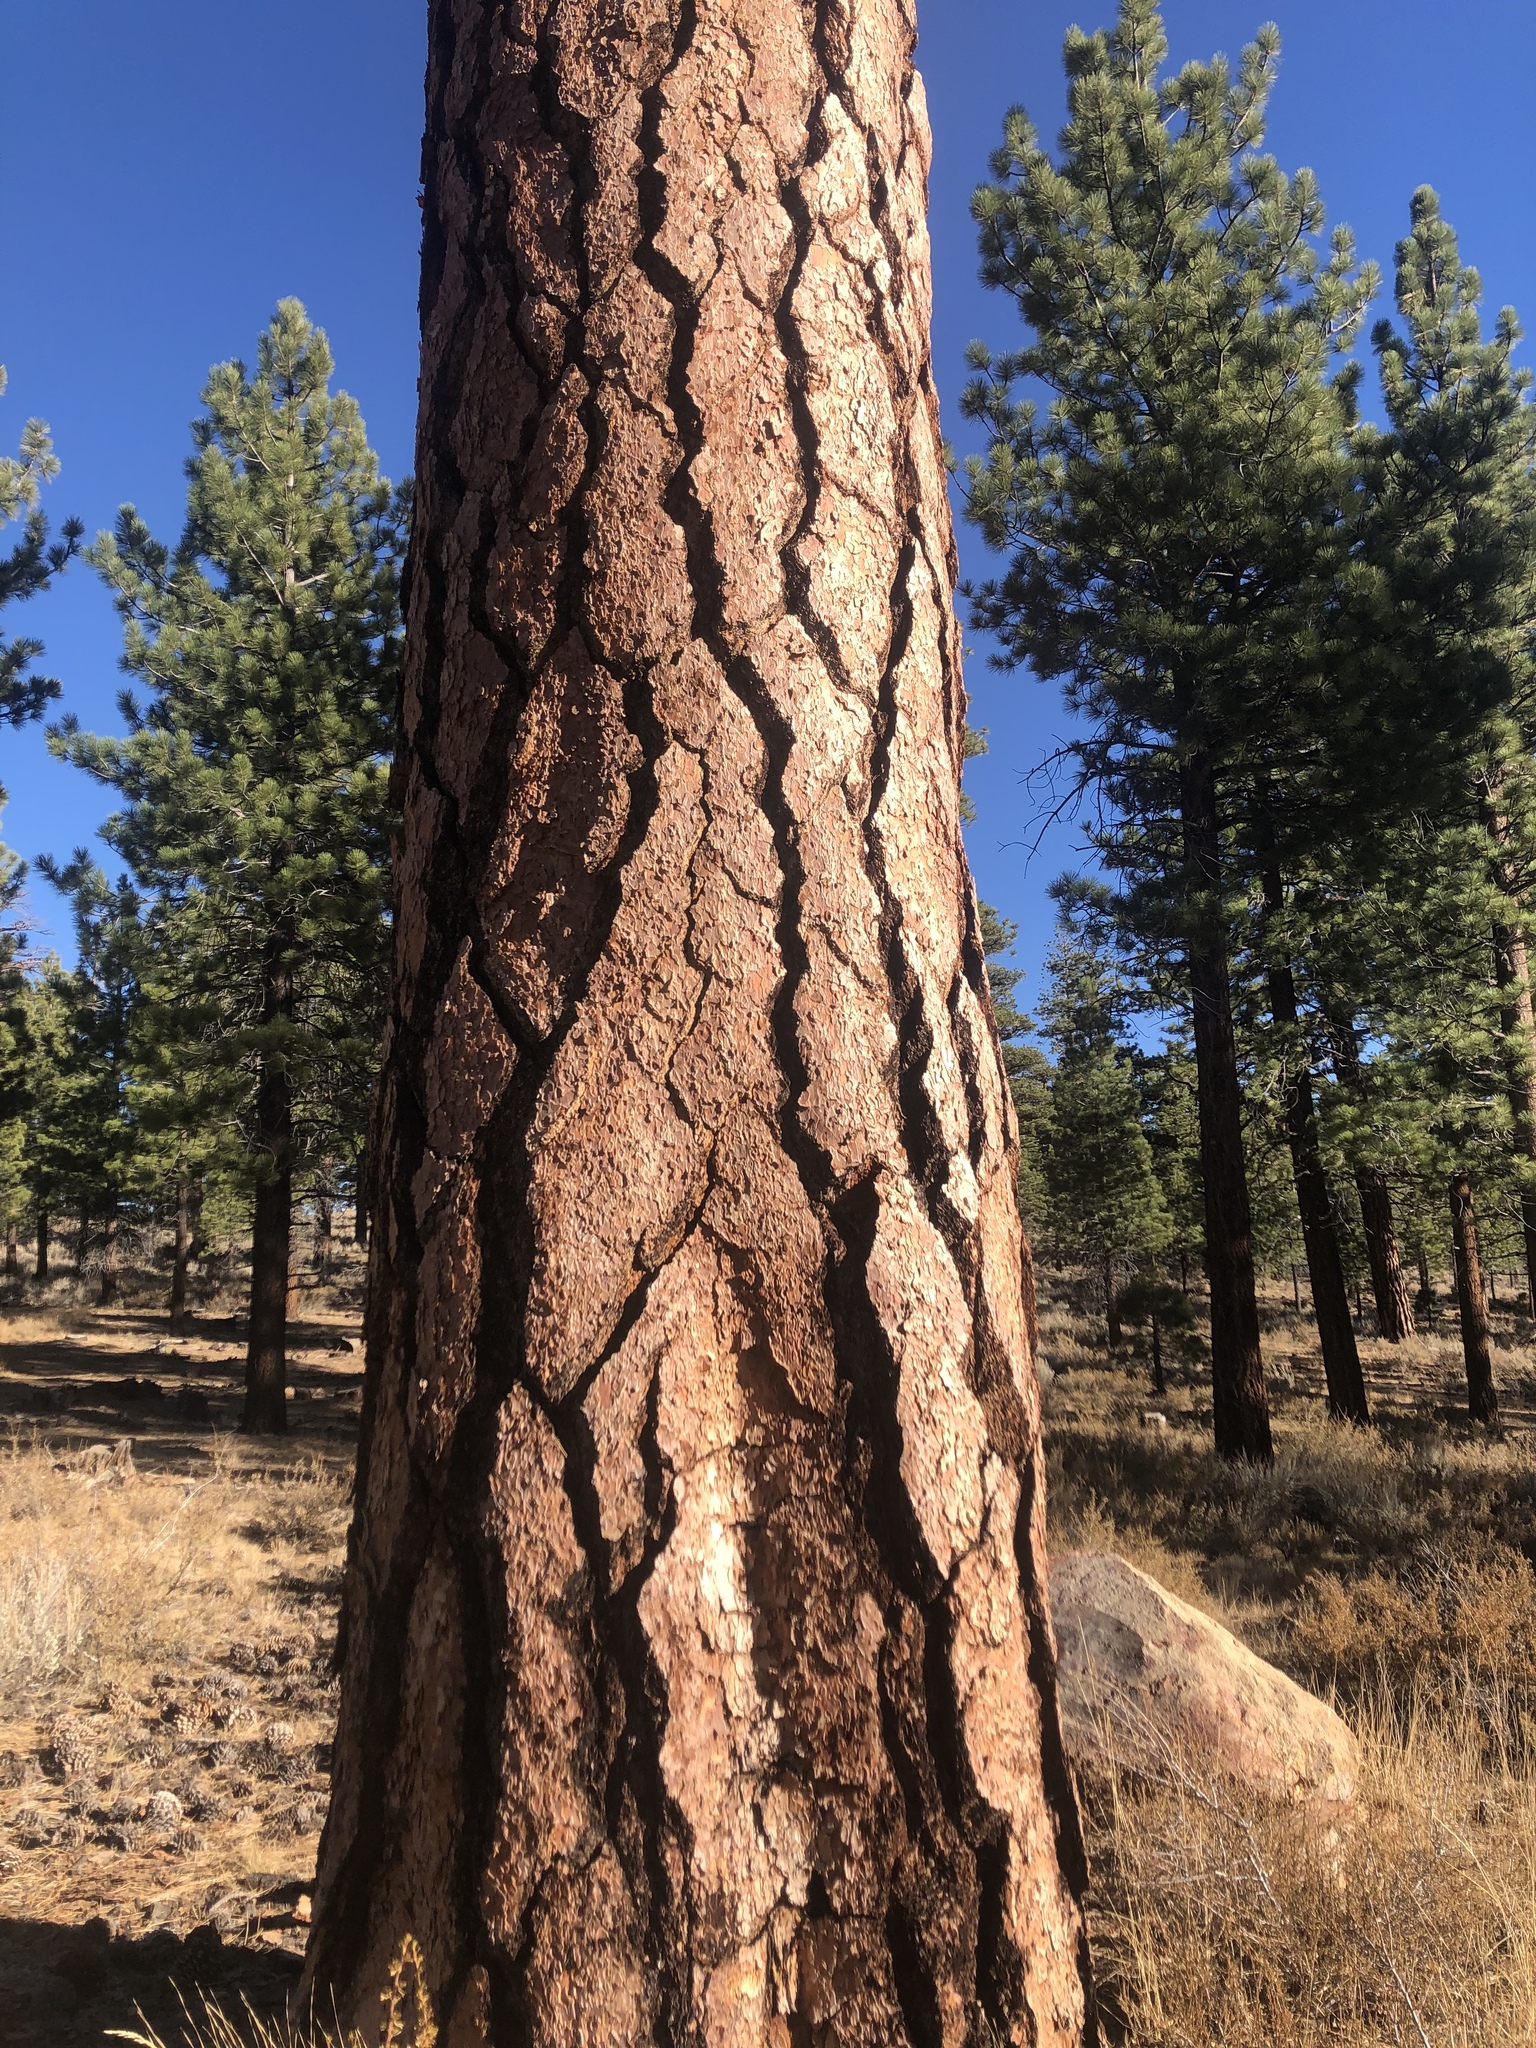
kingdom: Plantae
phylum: Tracheophyta
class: Pinopsida
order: Pinales
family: Pinaceae
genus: Pinus
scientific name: Pinus jeffreyi
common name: Jeffrey pine
